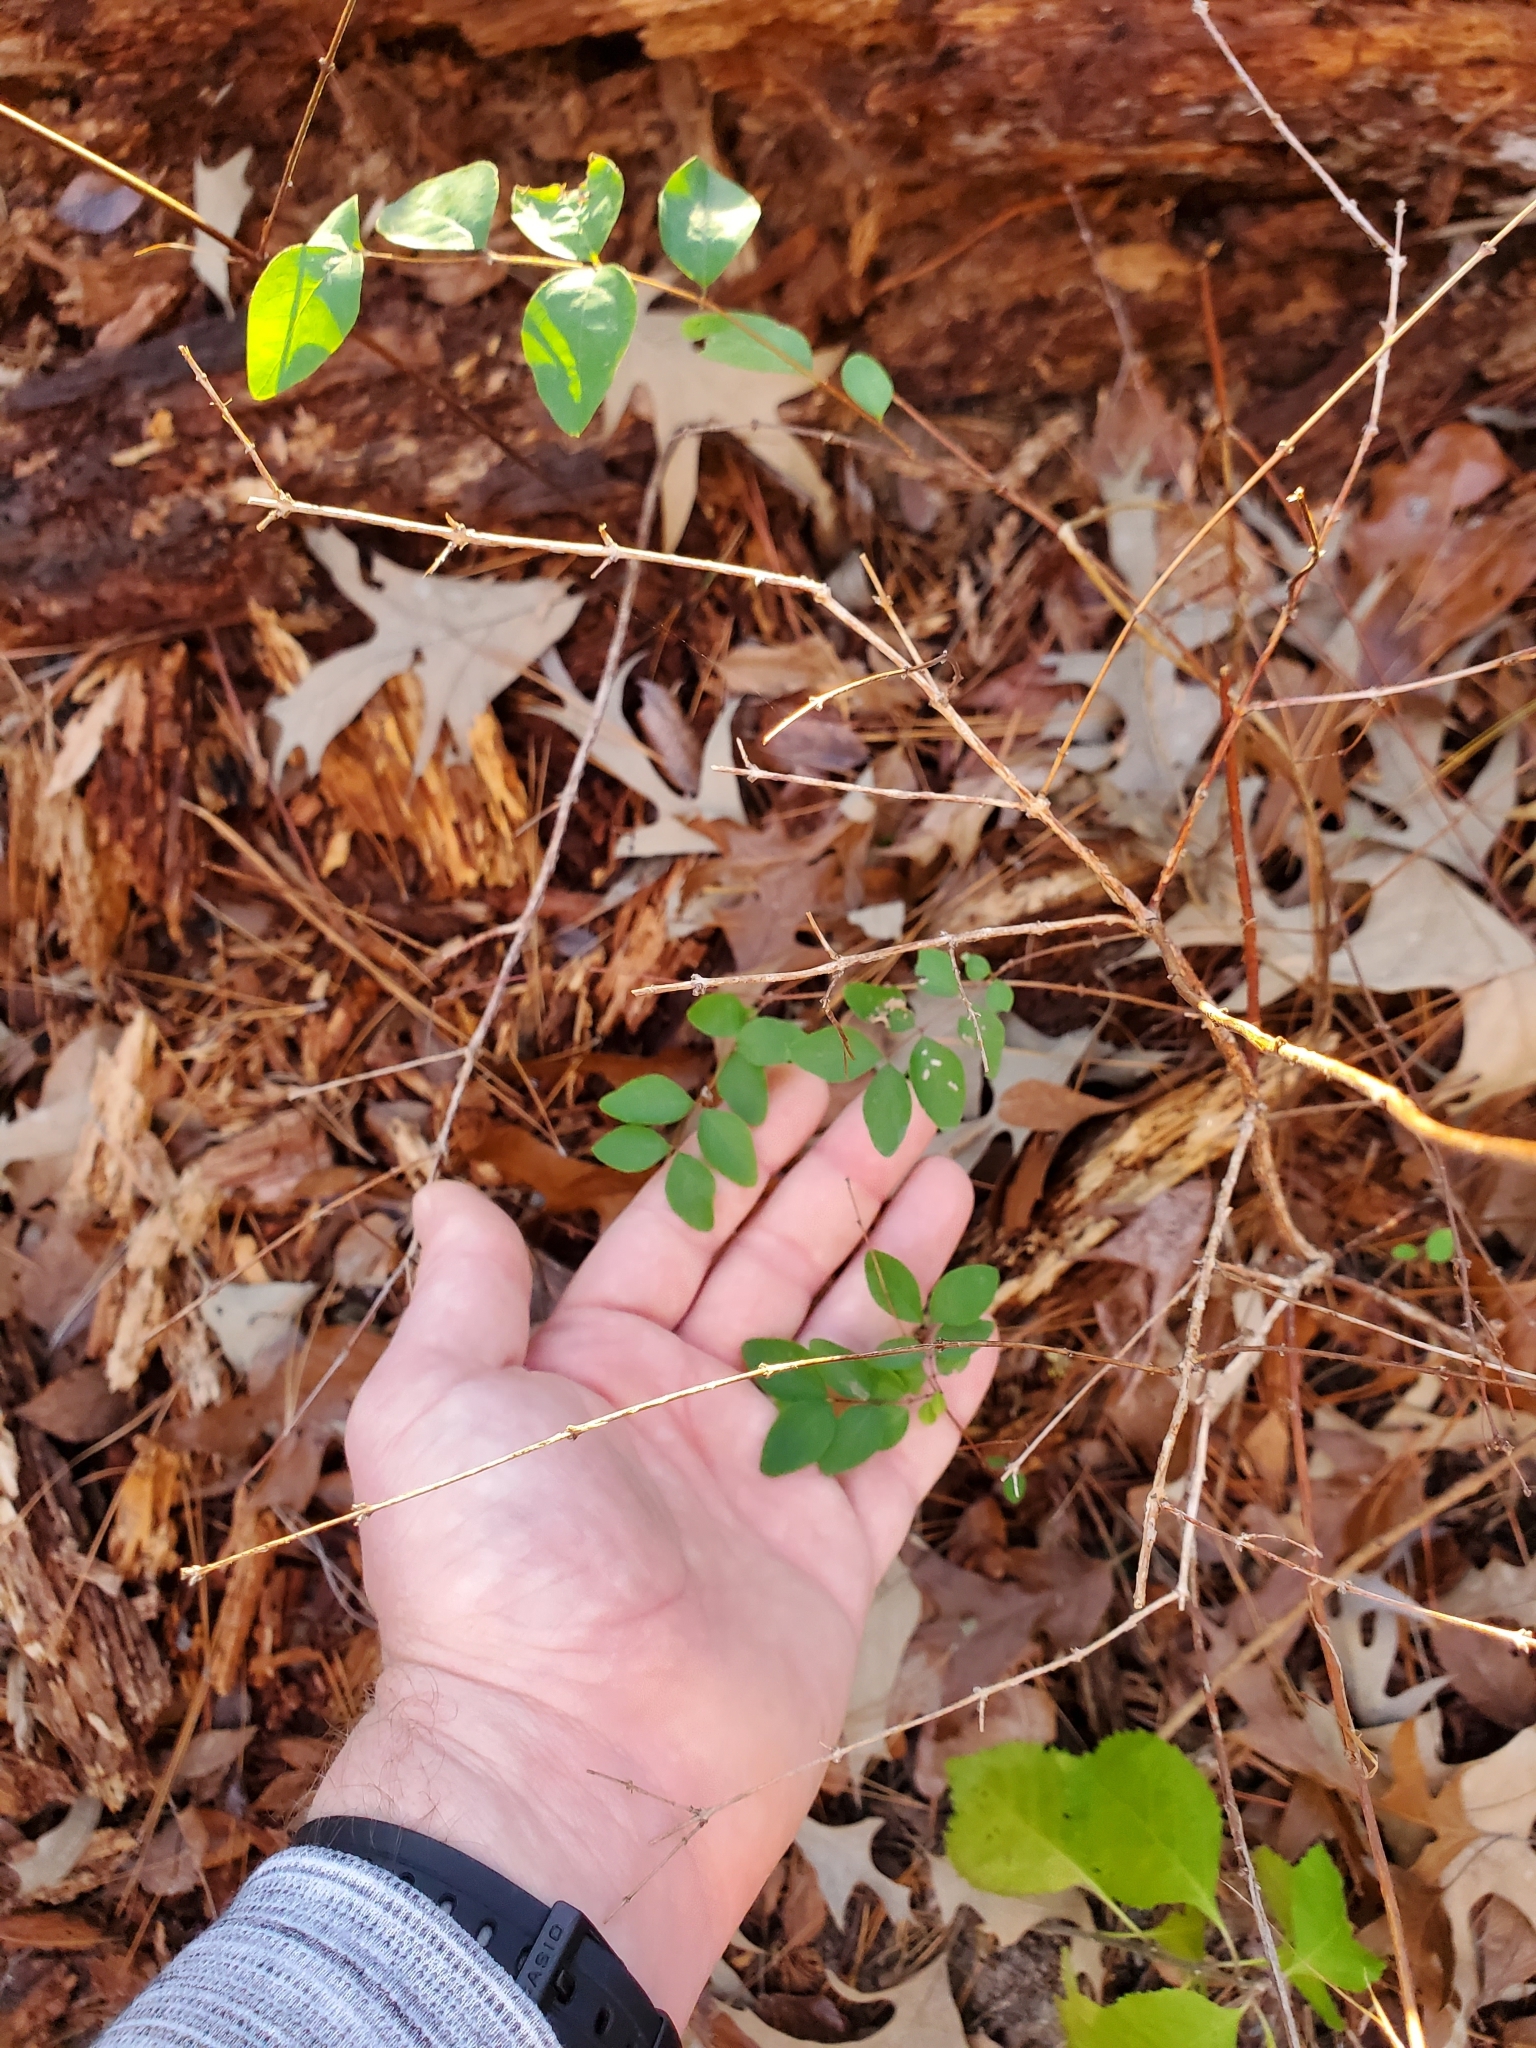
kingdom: Plantae
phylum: Tracheophyta
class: Magnoliopsida
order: Dipsacales
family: Caprifoliaceae
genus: Symphoricarpos
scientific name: Symphoricarpos orbiculatus
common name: Coralberry
